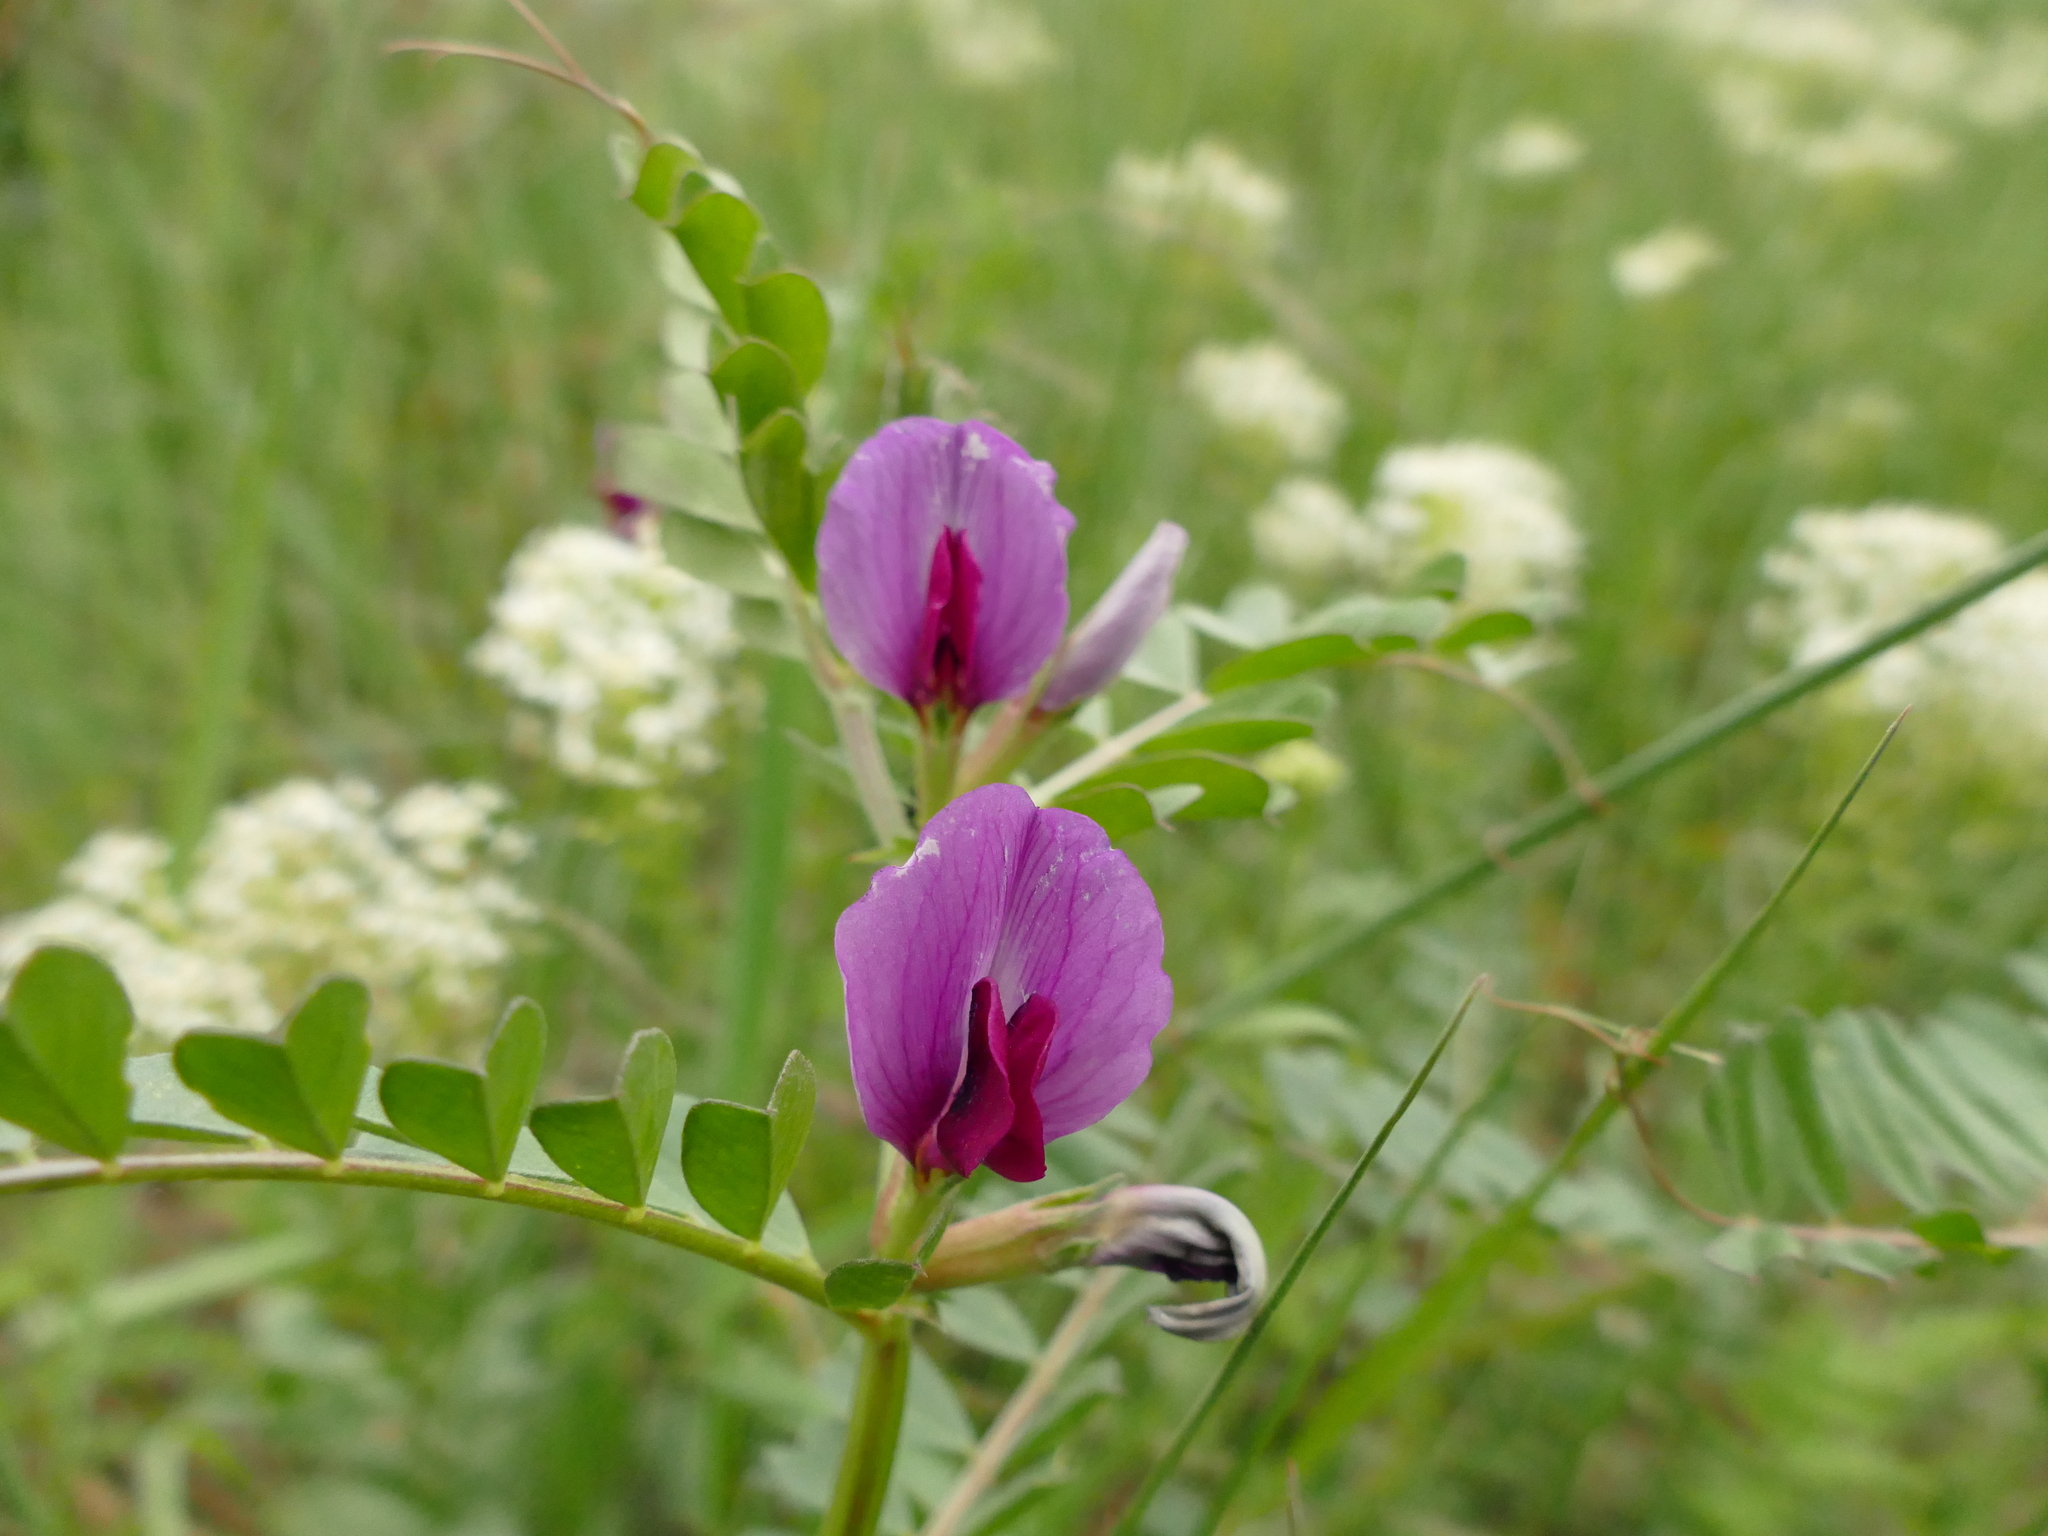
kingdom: Plantae
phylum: Tracheophyta
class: Magnoliopsida
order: Fabales
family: Fabaceae
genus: Vicia
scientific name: Vicia sativa
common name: Garden vetch
